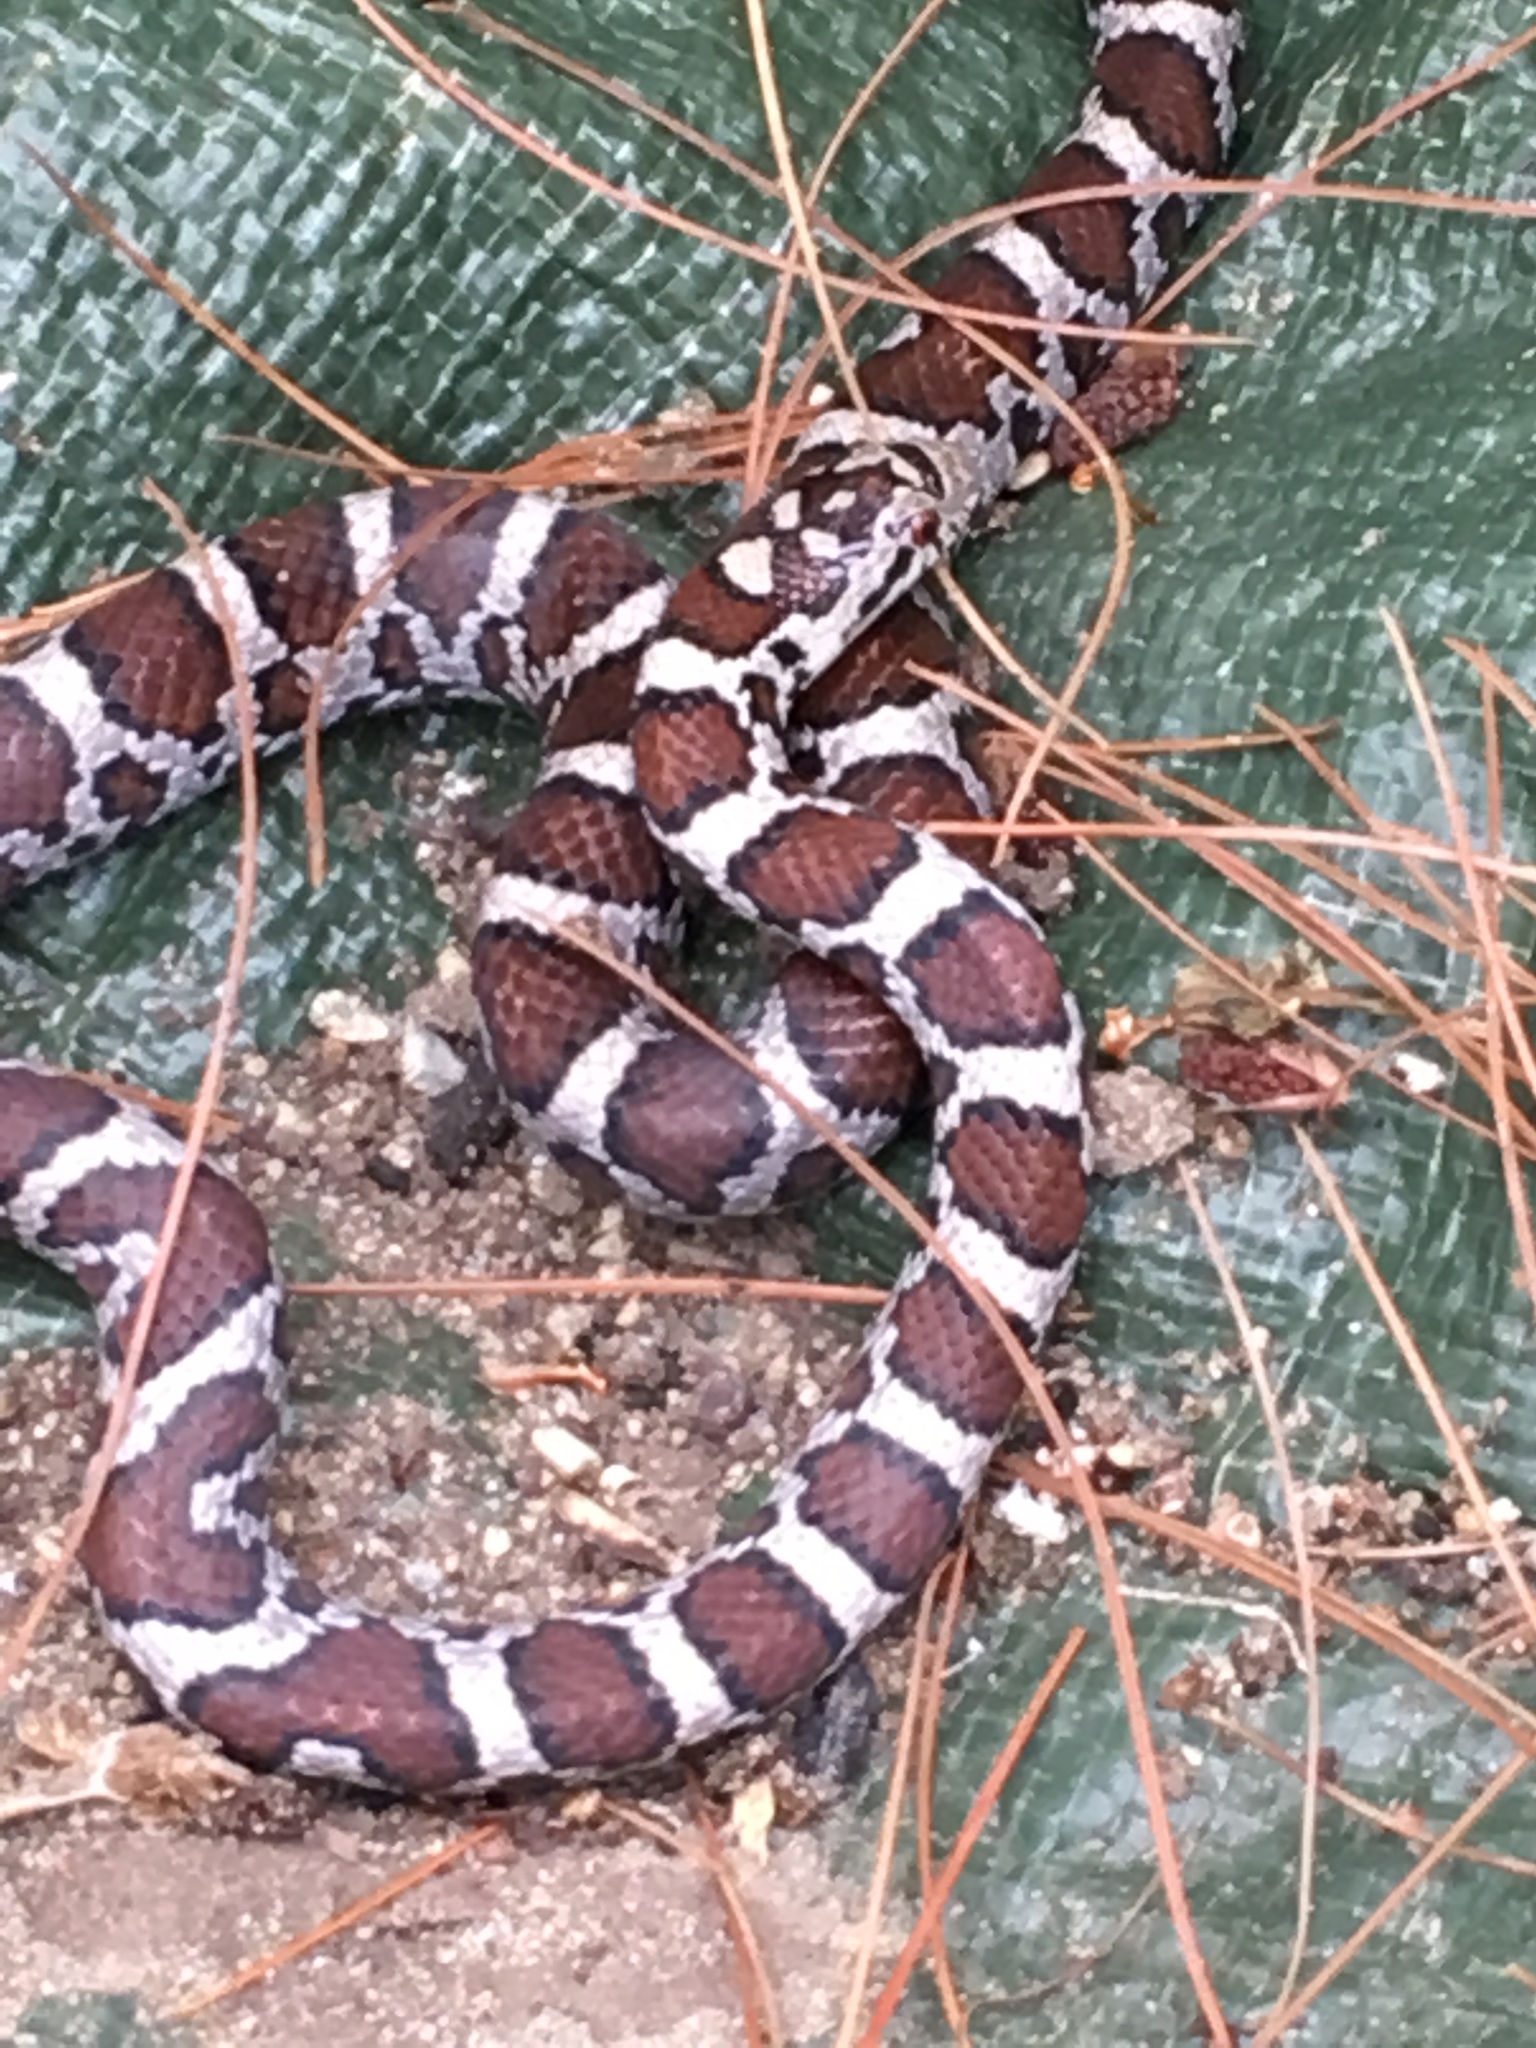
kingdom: Animalia
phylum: Chordata
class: Squamata
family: Colubridae
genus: Lampropeltis
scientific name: Lampropeltis triangulum
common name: Eastern milksnake
